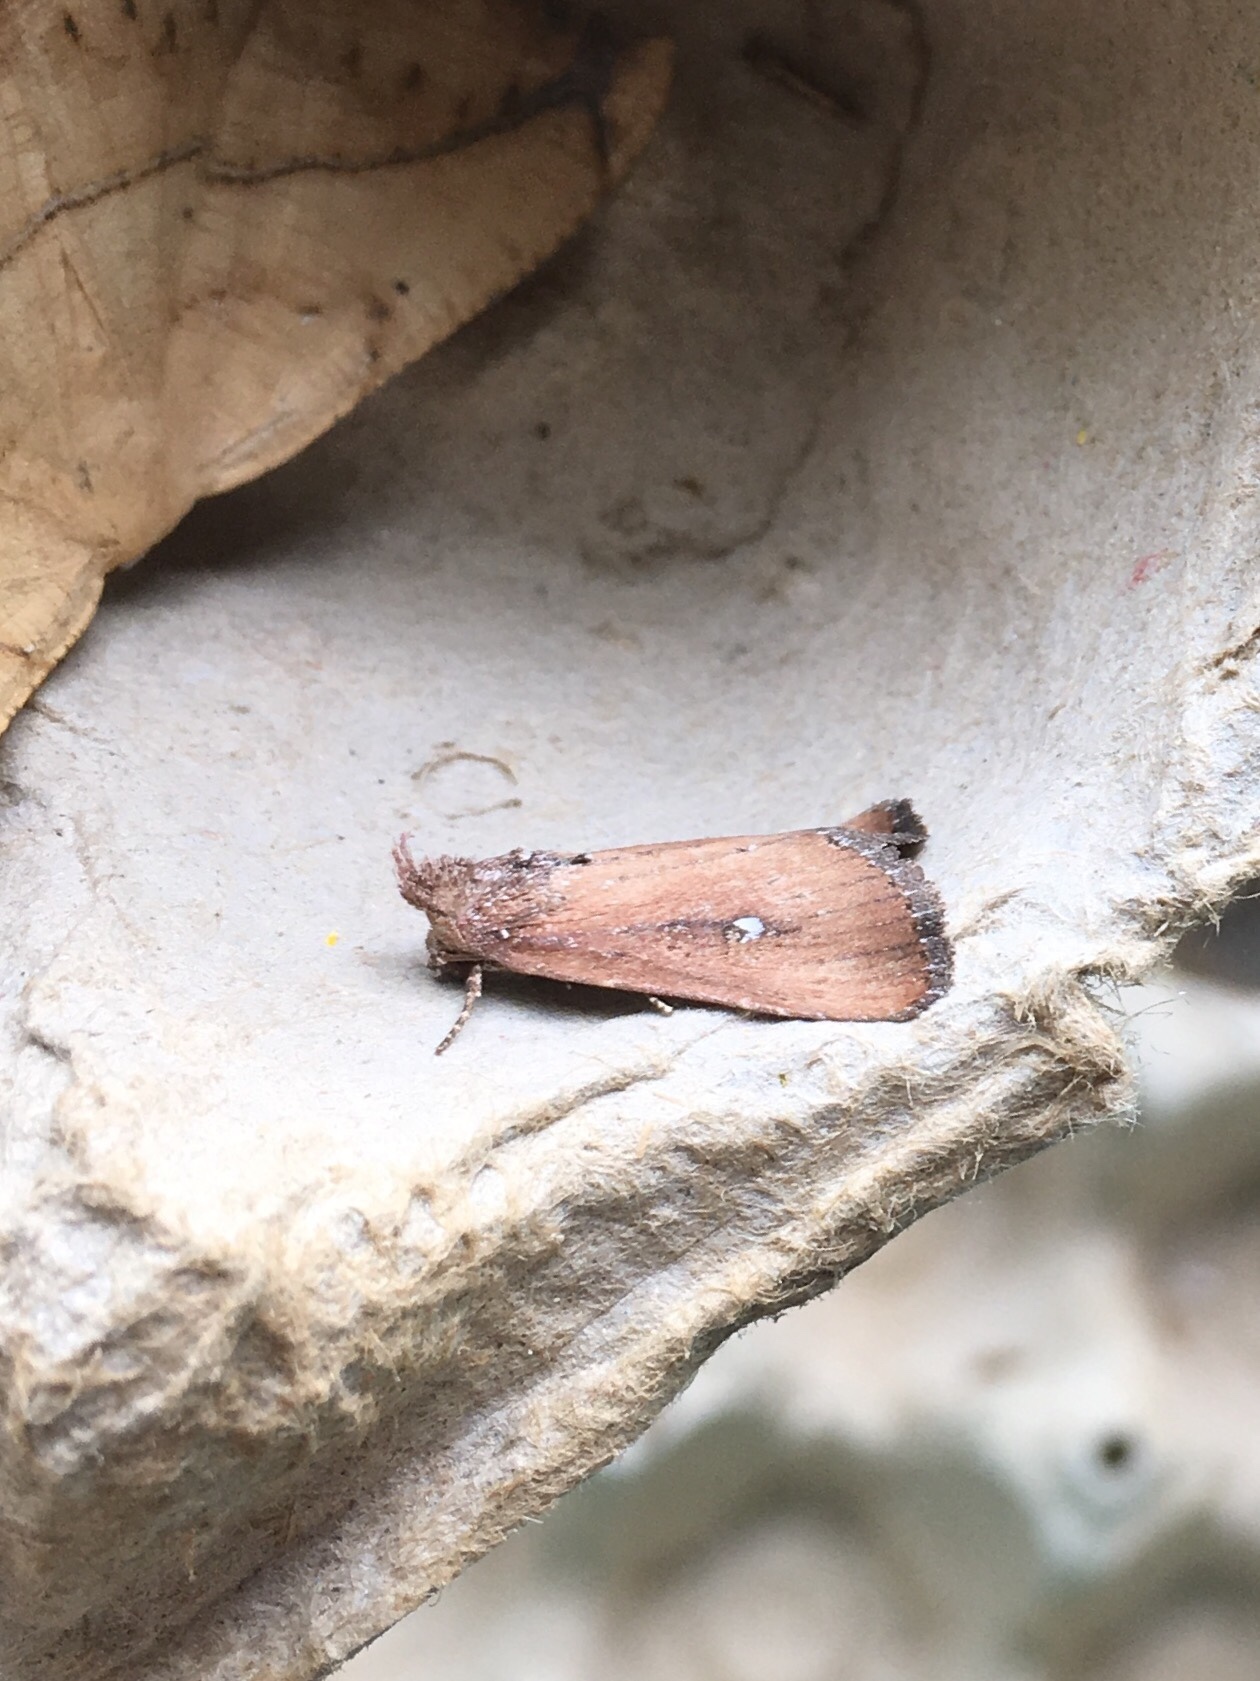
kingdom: Animalia
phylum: Arthropoda
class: Insecta
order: Lepidoptera
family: Noctuidae
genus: Condica
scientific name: Condica videns
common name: White-dotted groundling
